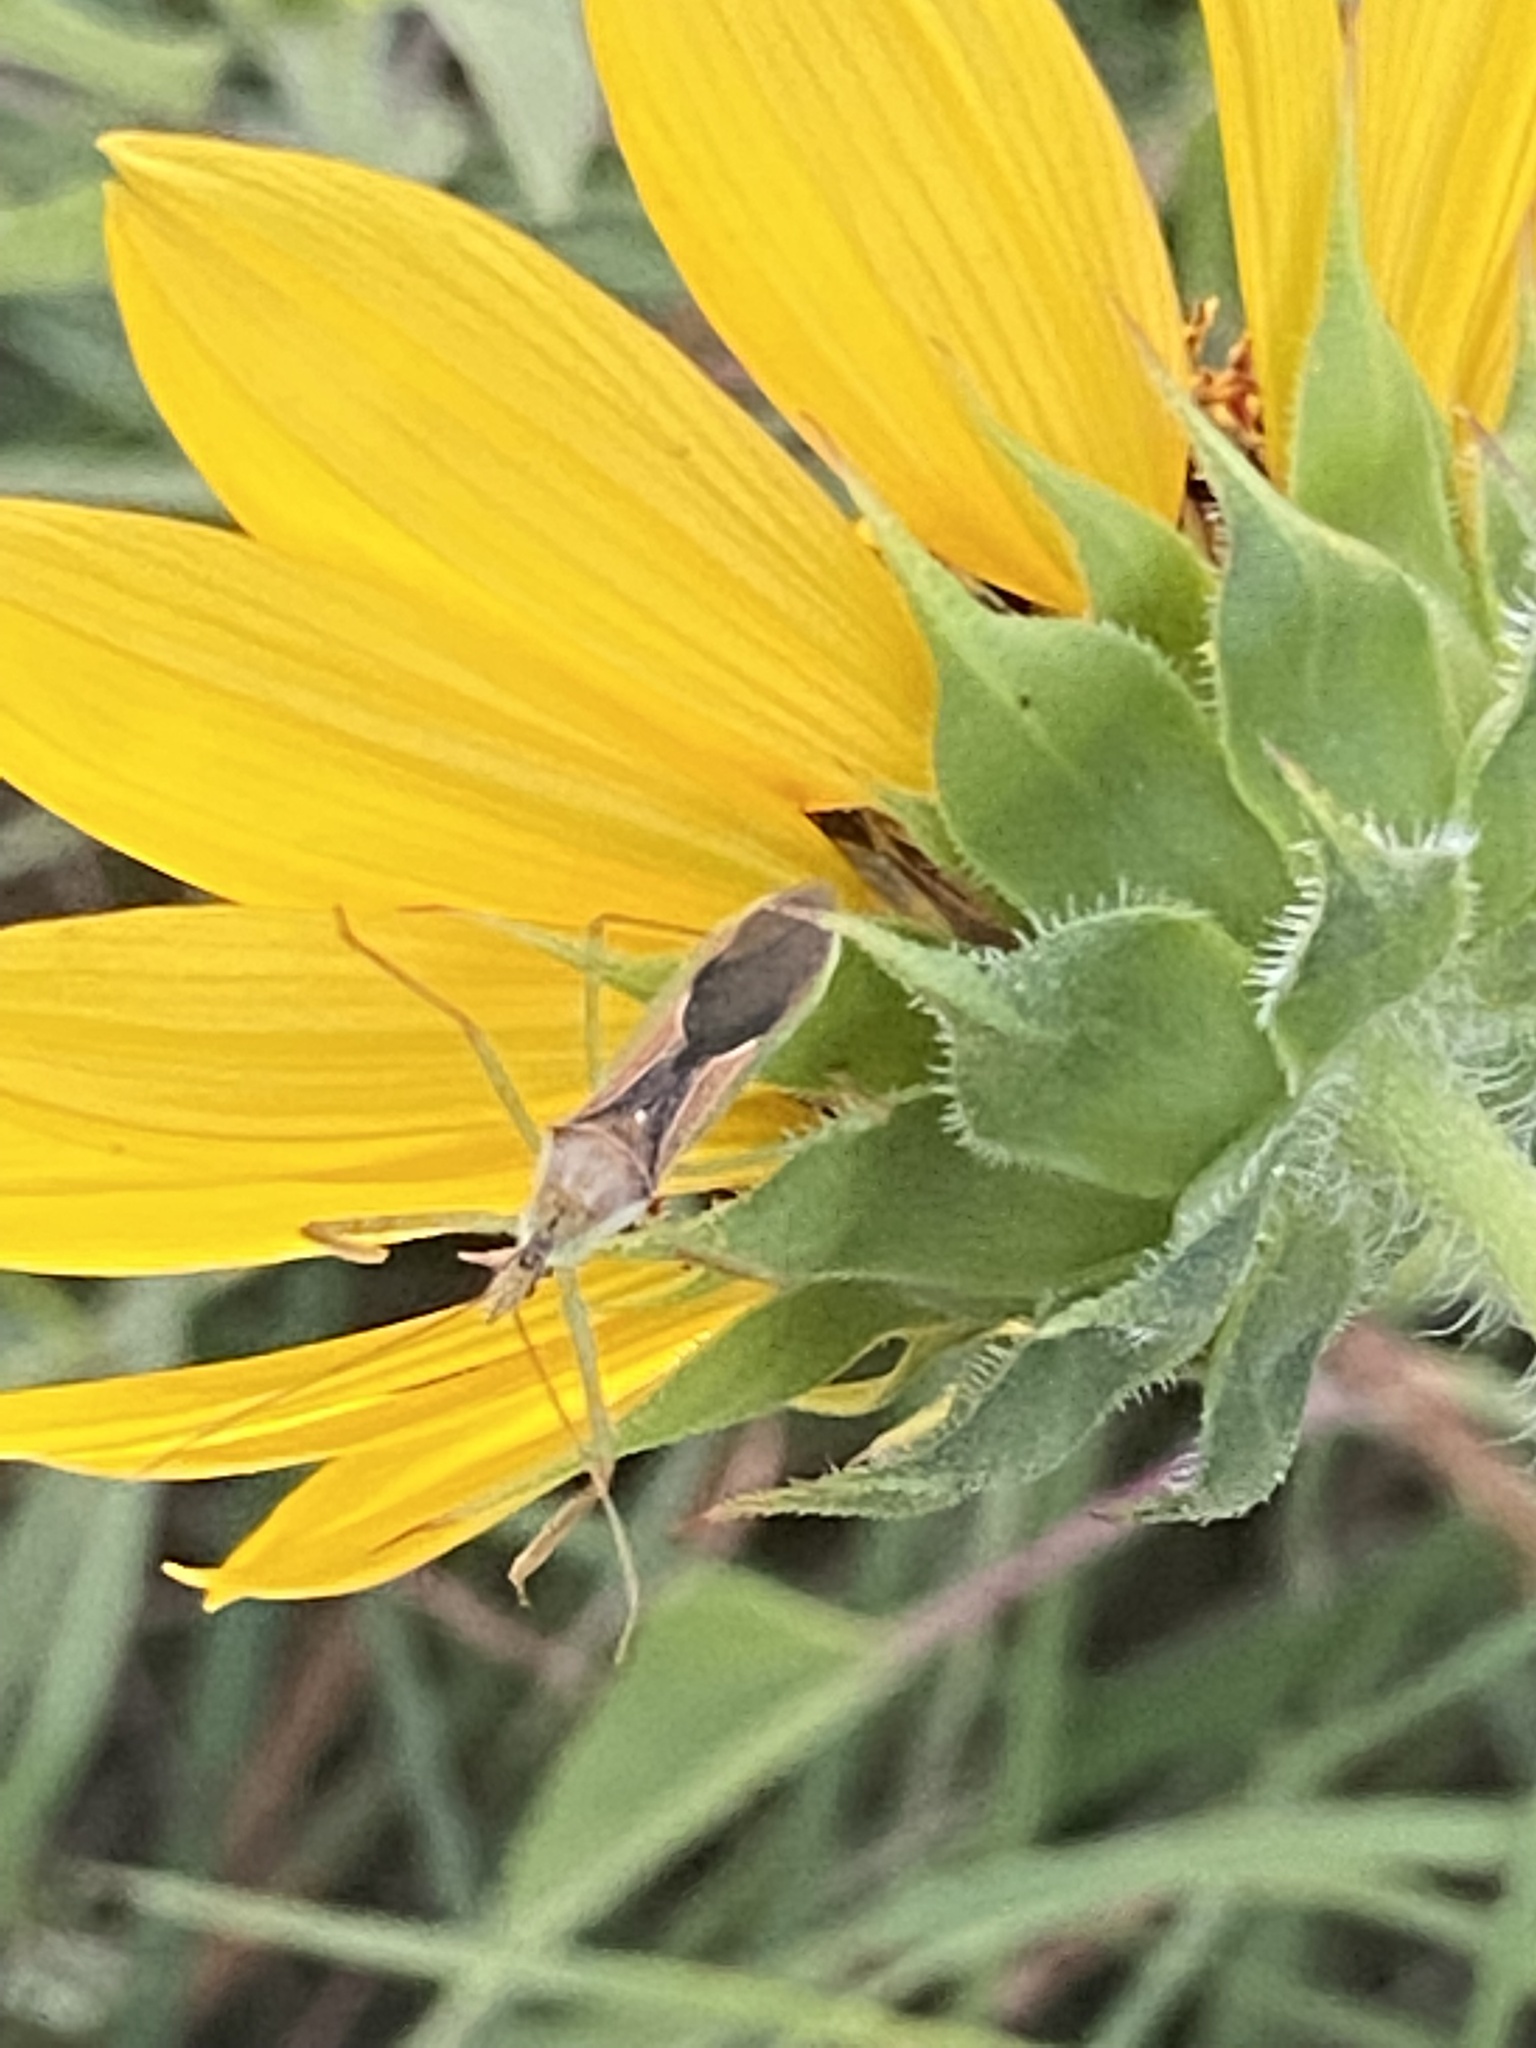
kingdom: Animalia
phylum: Arthropoda
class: Insecta
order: Hemiptera
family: Reduviidae
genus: Zelus
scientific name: Zelus renardii
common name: Assassin bug
